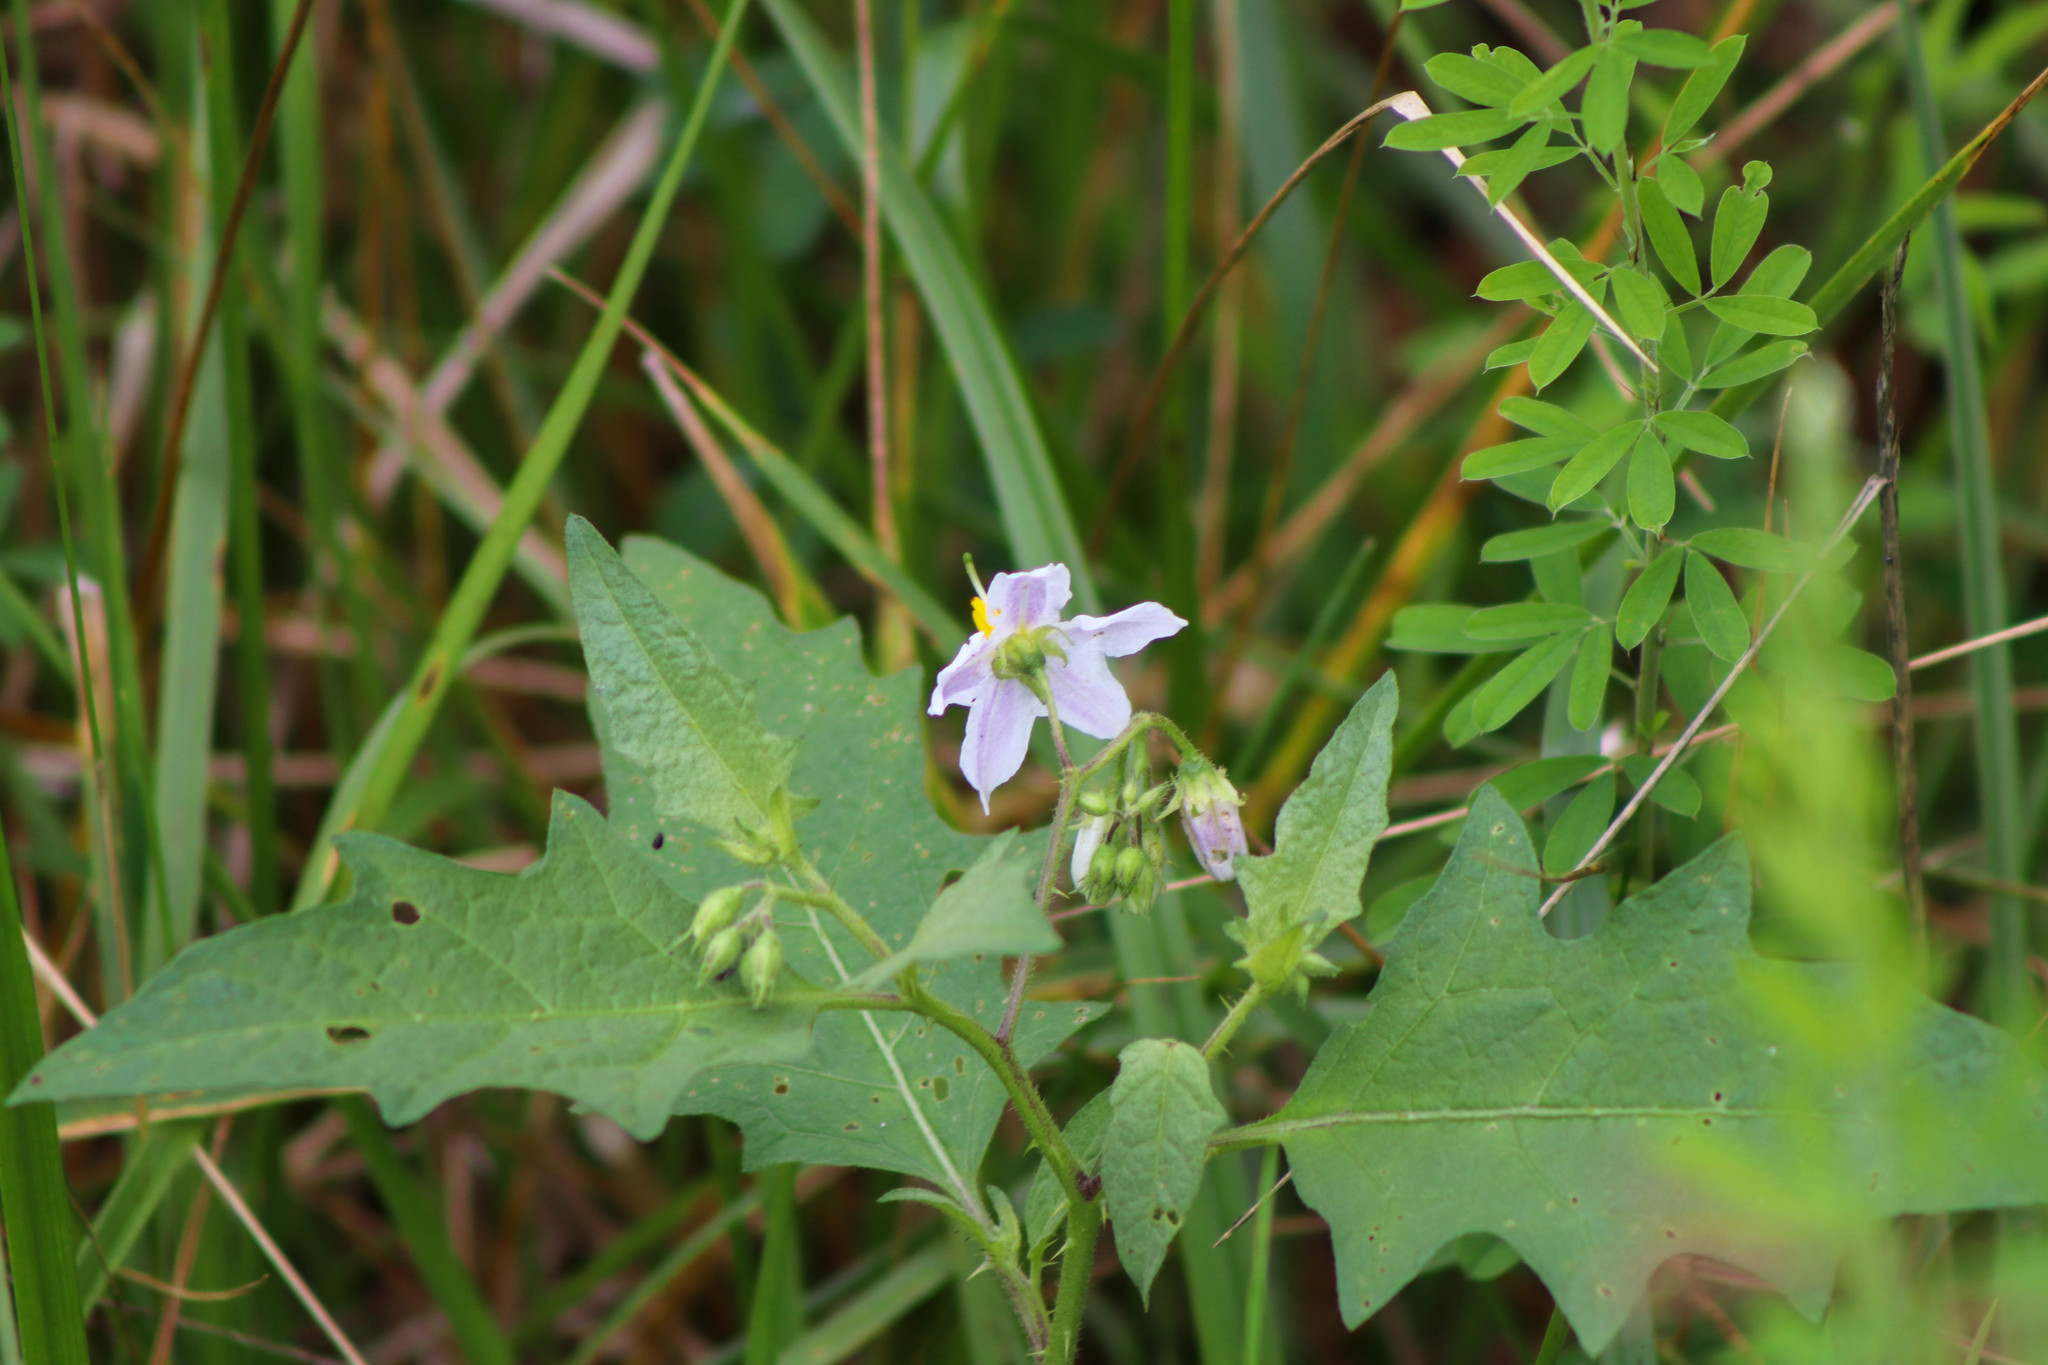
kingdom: Plantae
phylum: Tracheophyta
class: Magnoliopsida
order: Solanales
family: Solanaceae
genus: Solanum
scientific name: Solanum carolinense
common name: Horse-nettle
